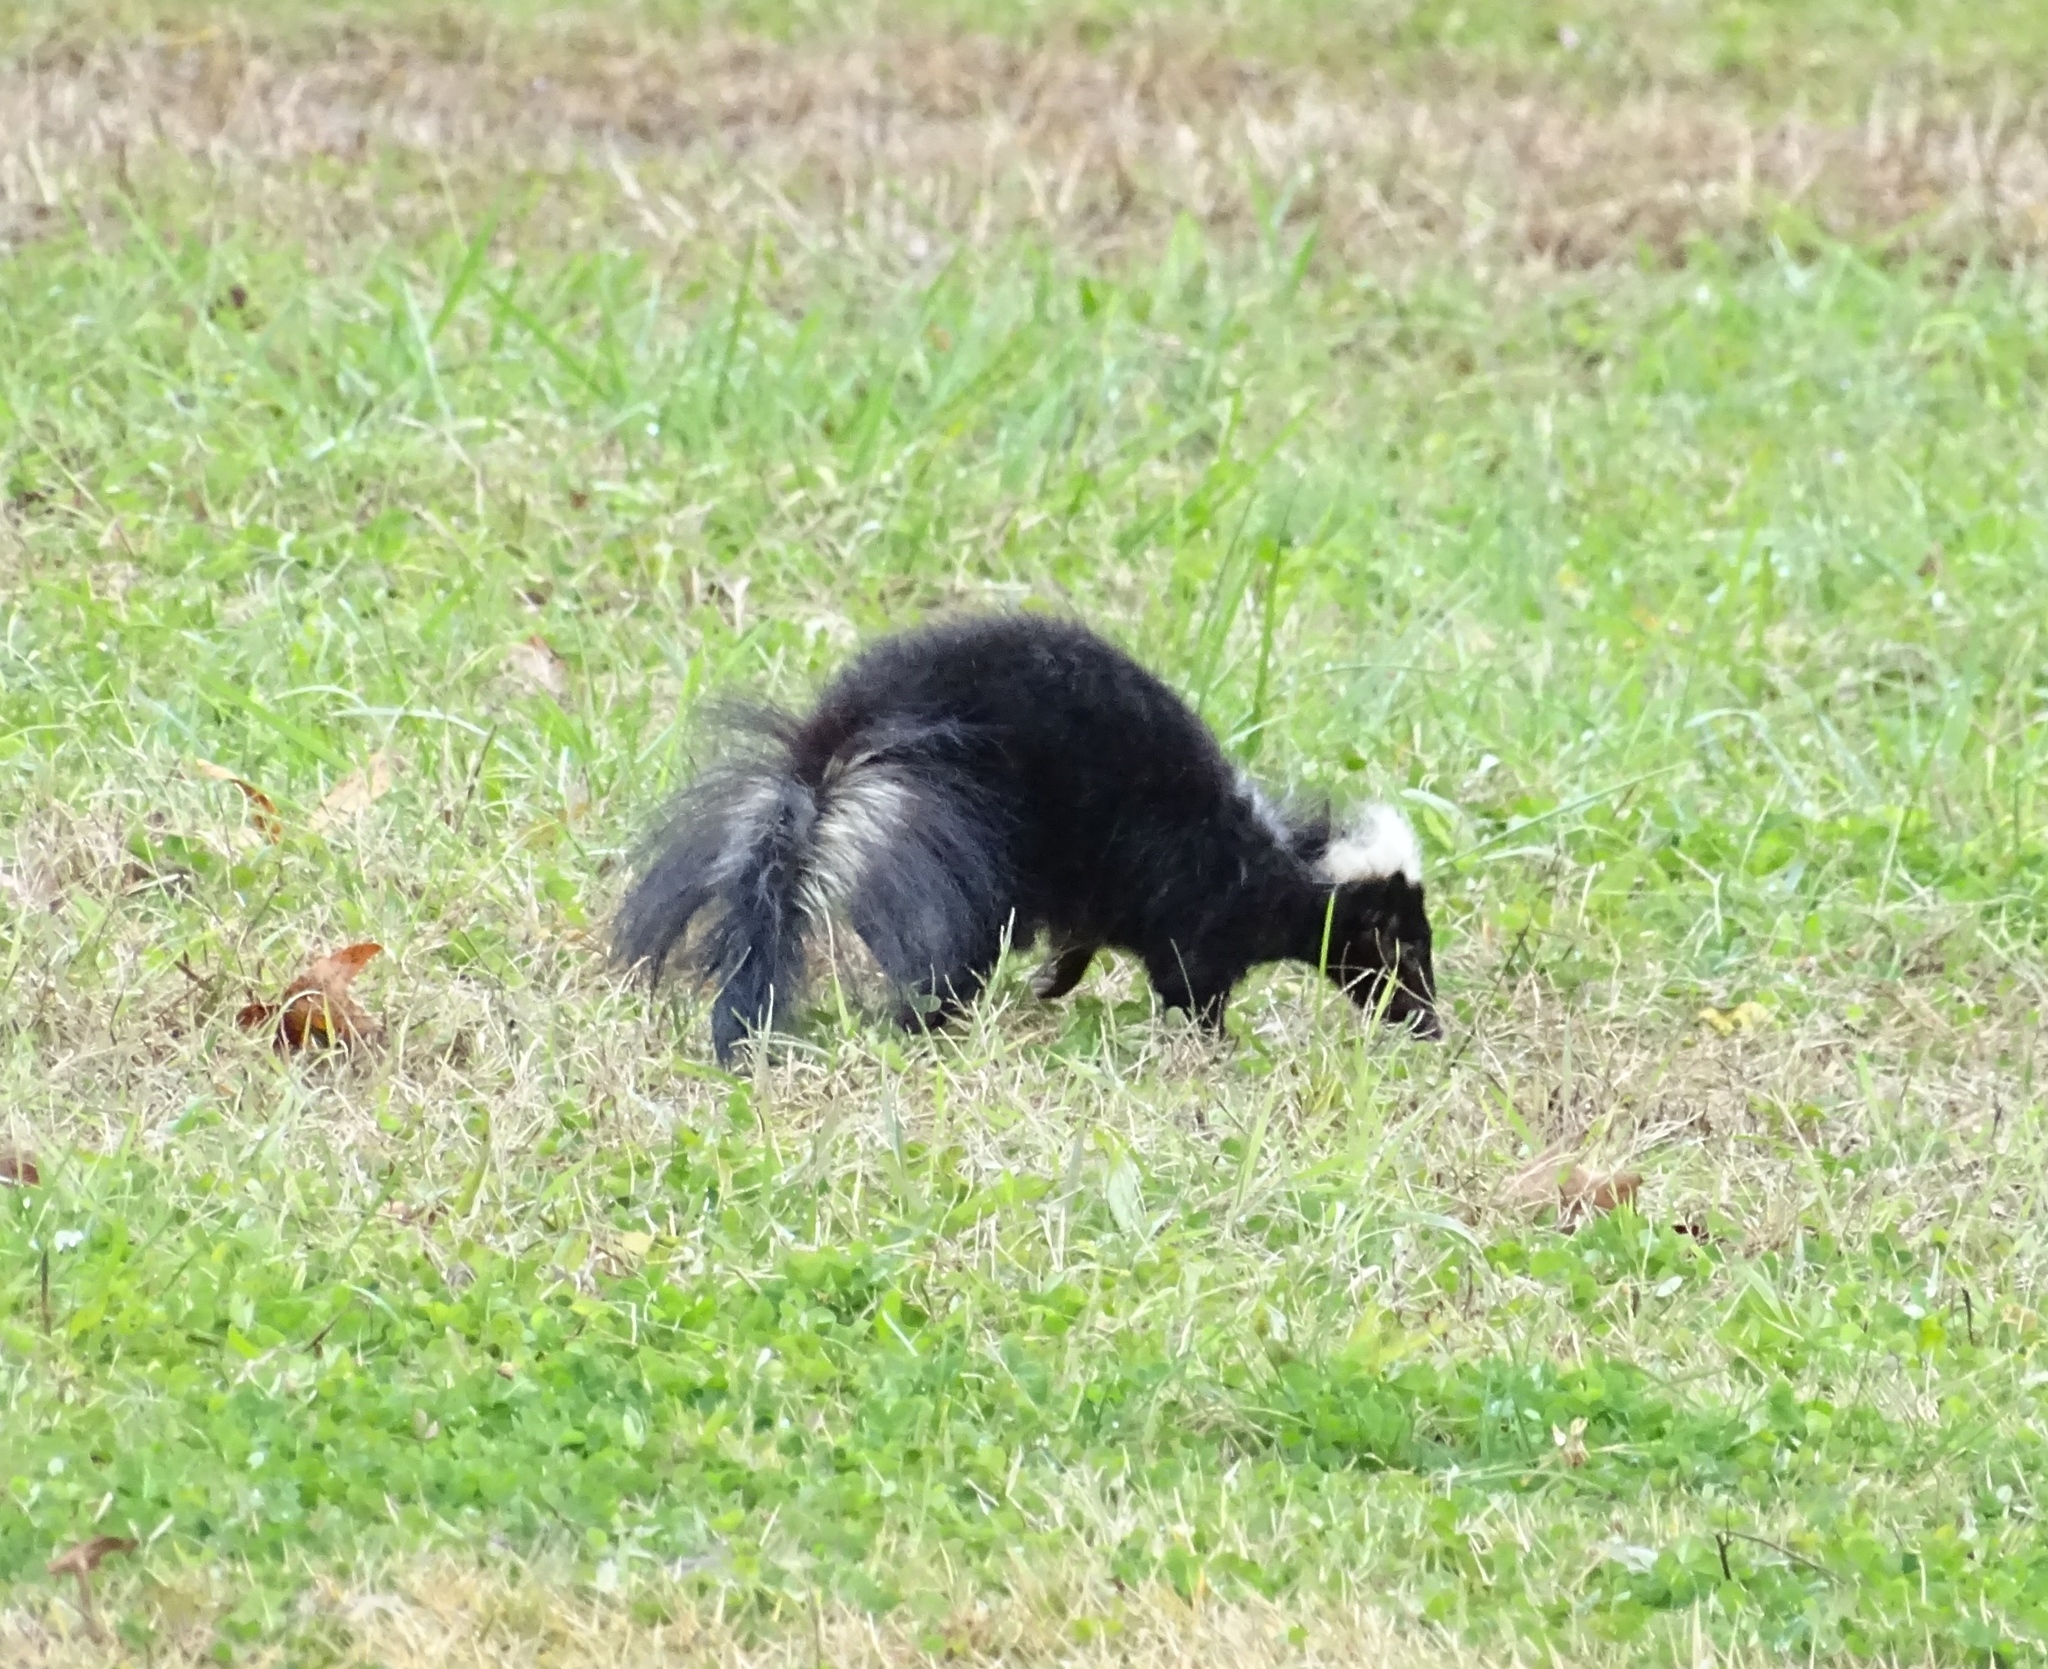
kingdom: Animalia
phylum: Chordata
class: Mammalia
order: Carnivora
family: Mephitidae
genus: Mephitis
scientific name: Mephitis mephitis
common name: Striped skunk
